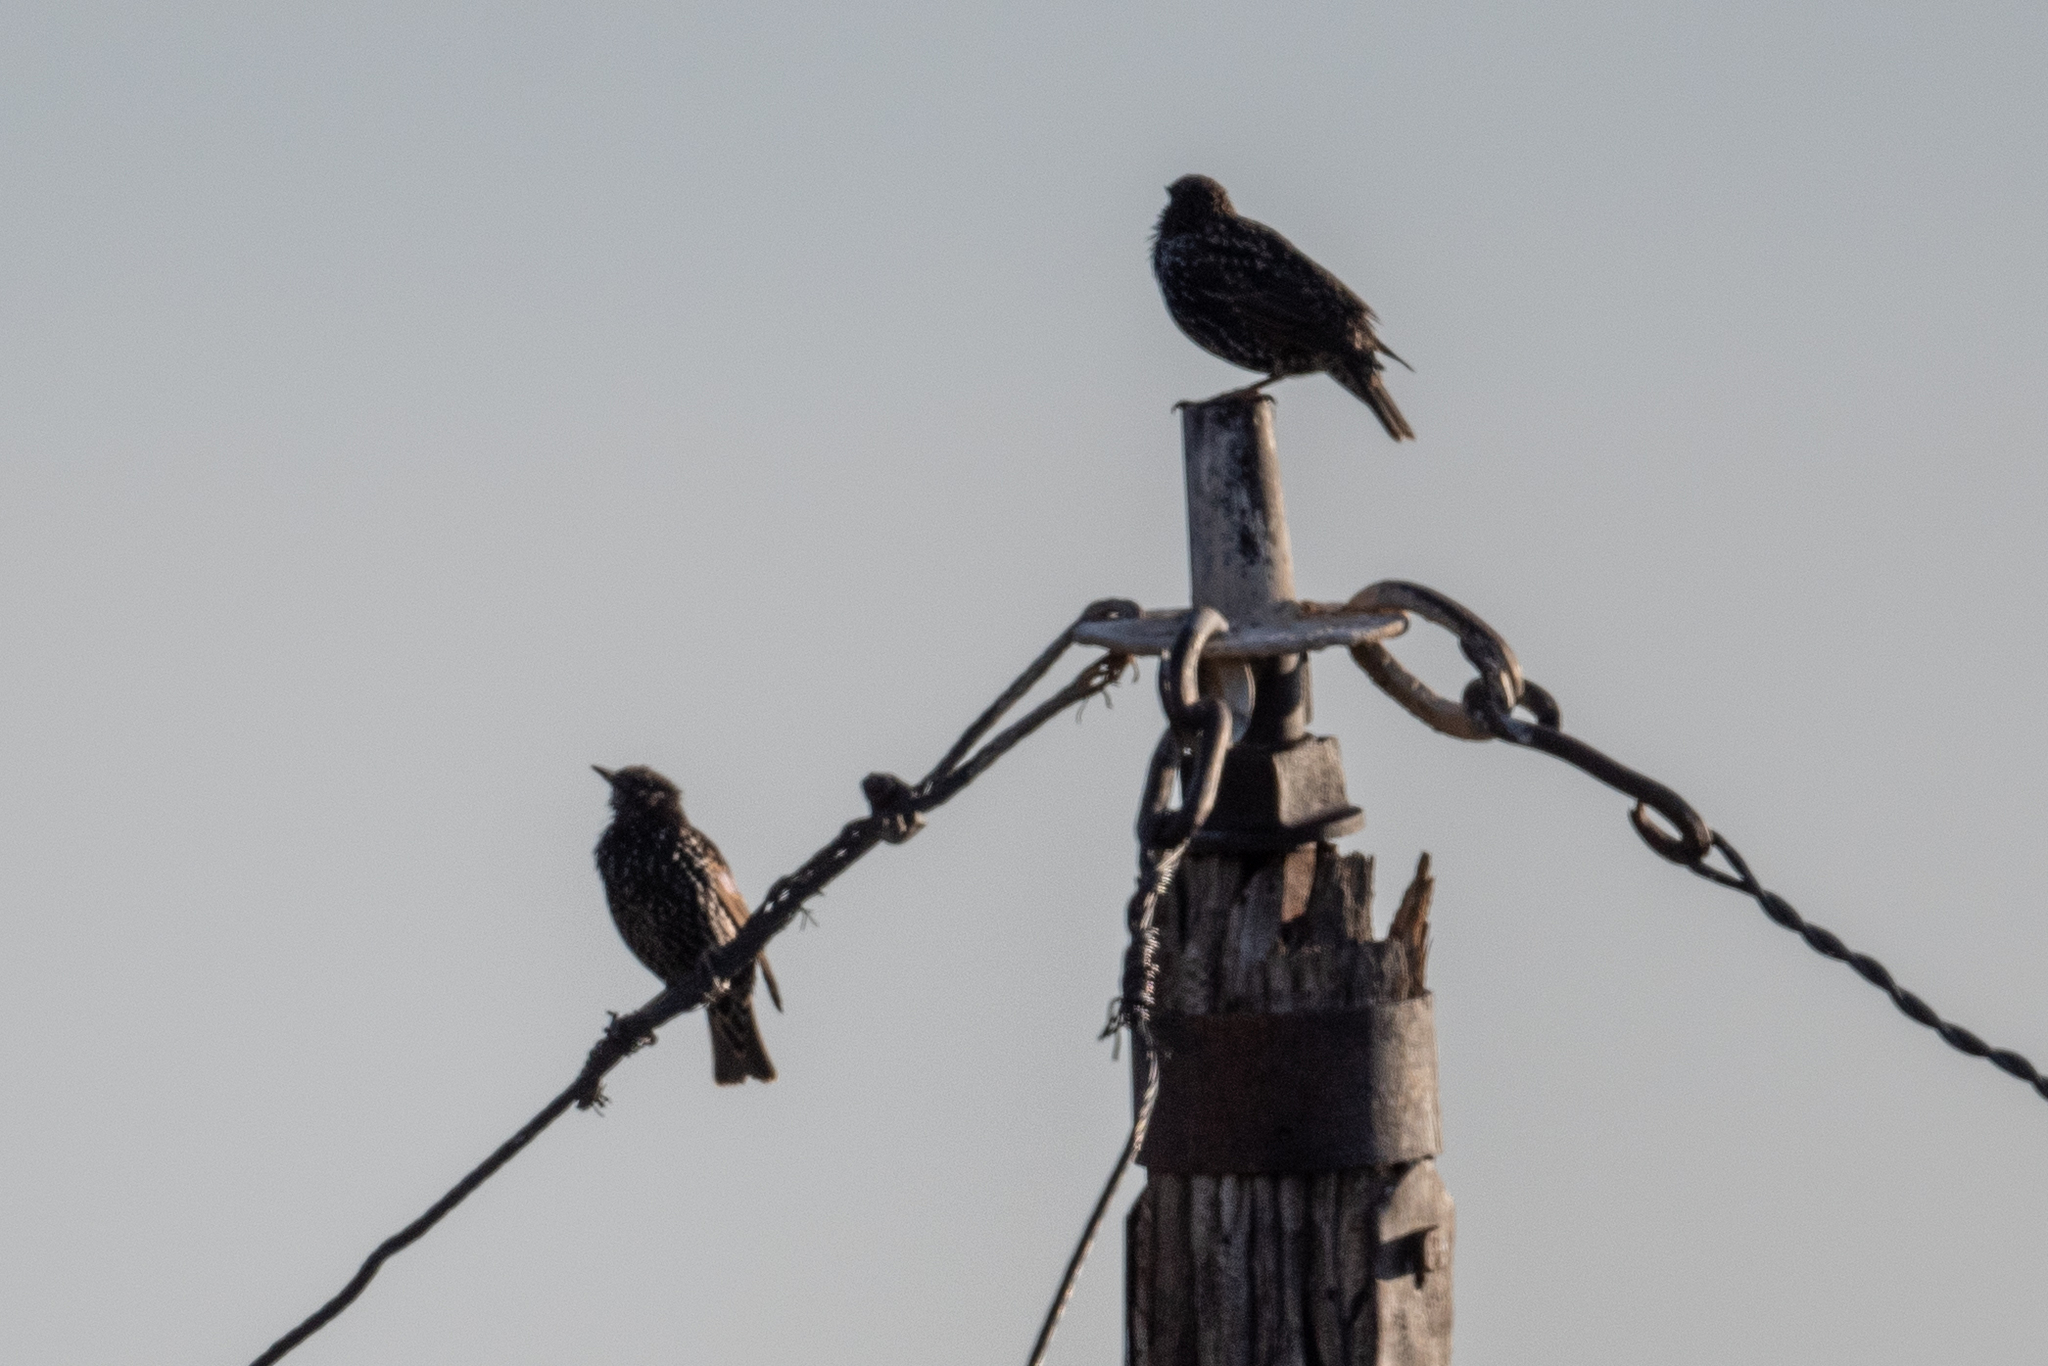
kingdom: Animalia
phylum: Chordata
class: Aves
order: Passeriformes
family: Sturnidae
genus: Sturnus
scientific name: Sturnus vulgaris
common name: Common starling
